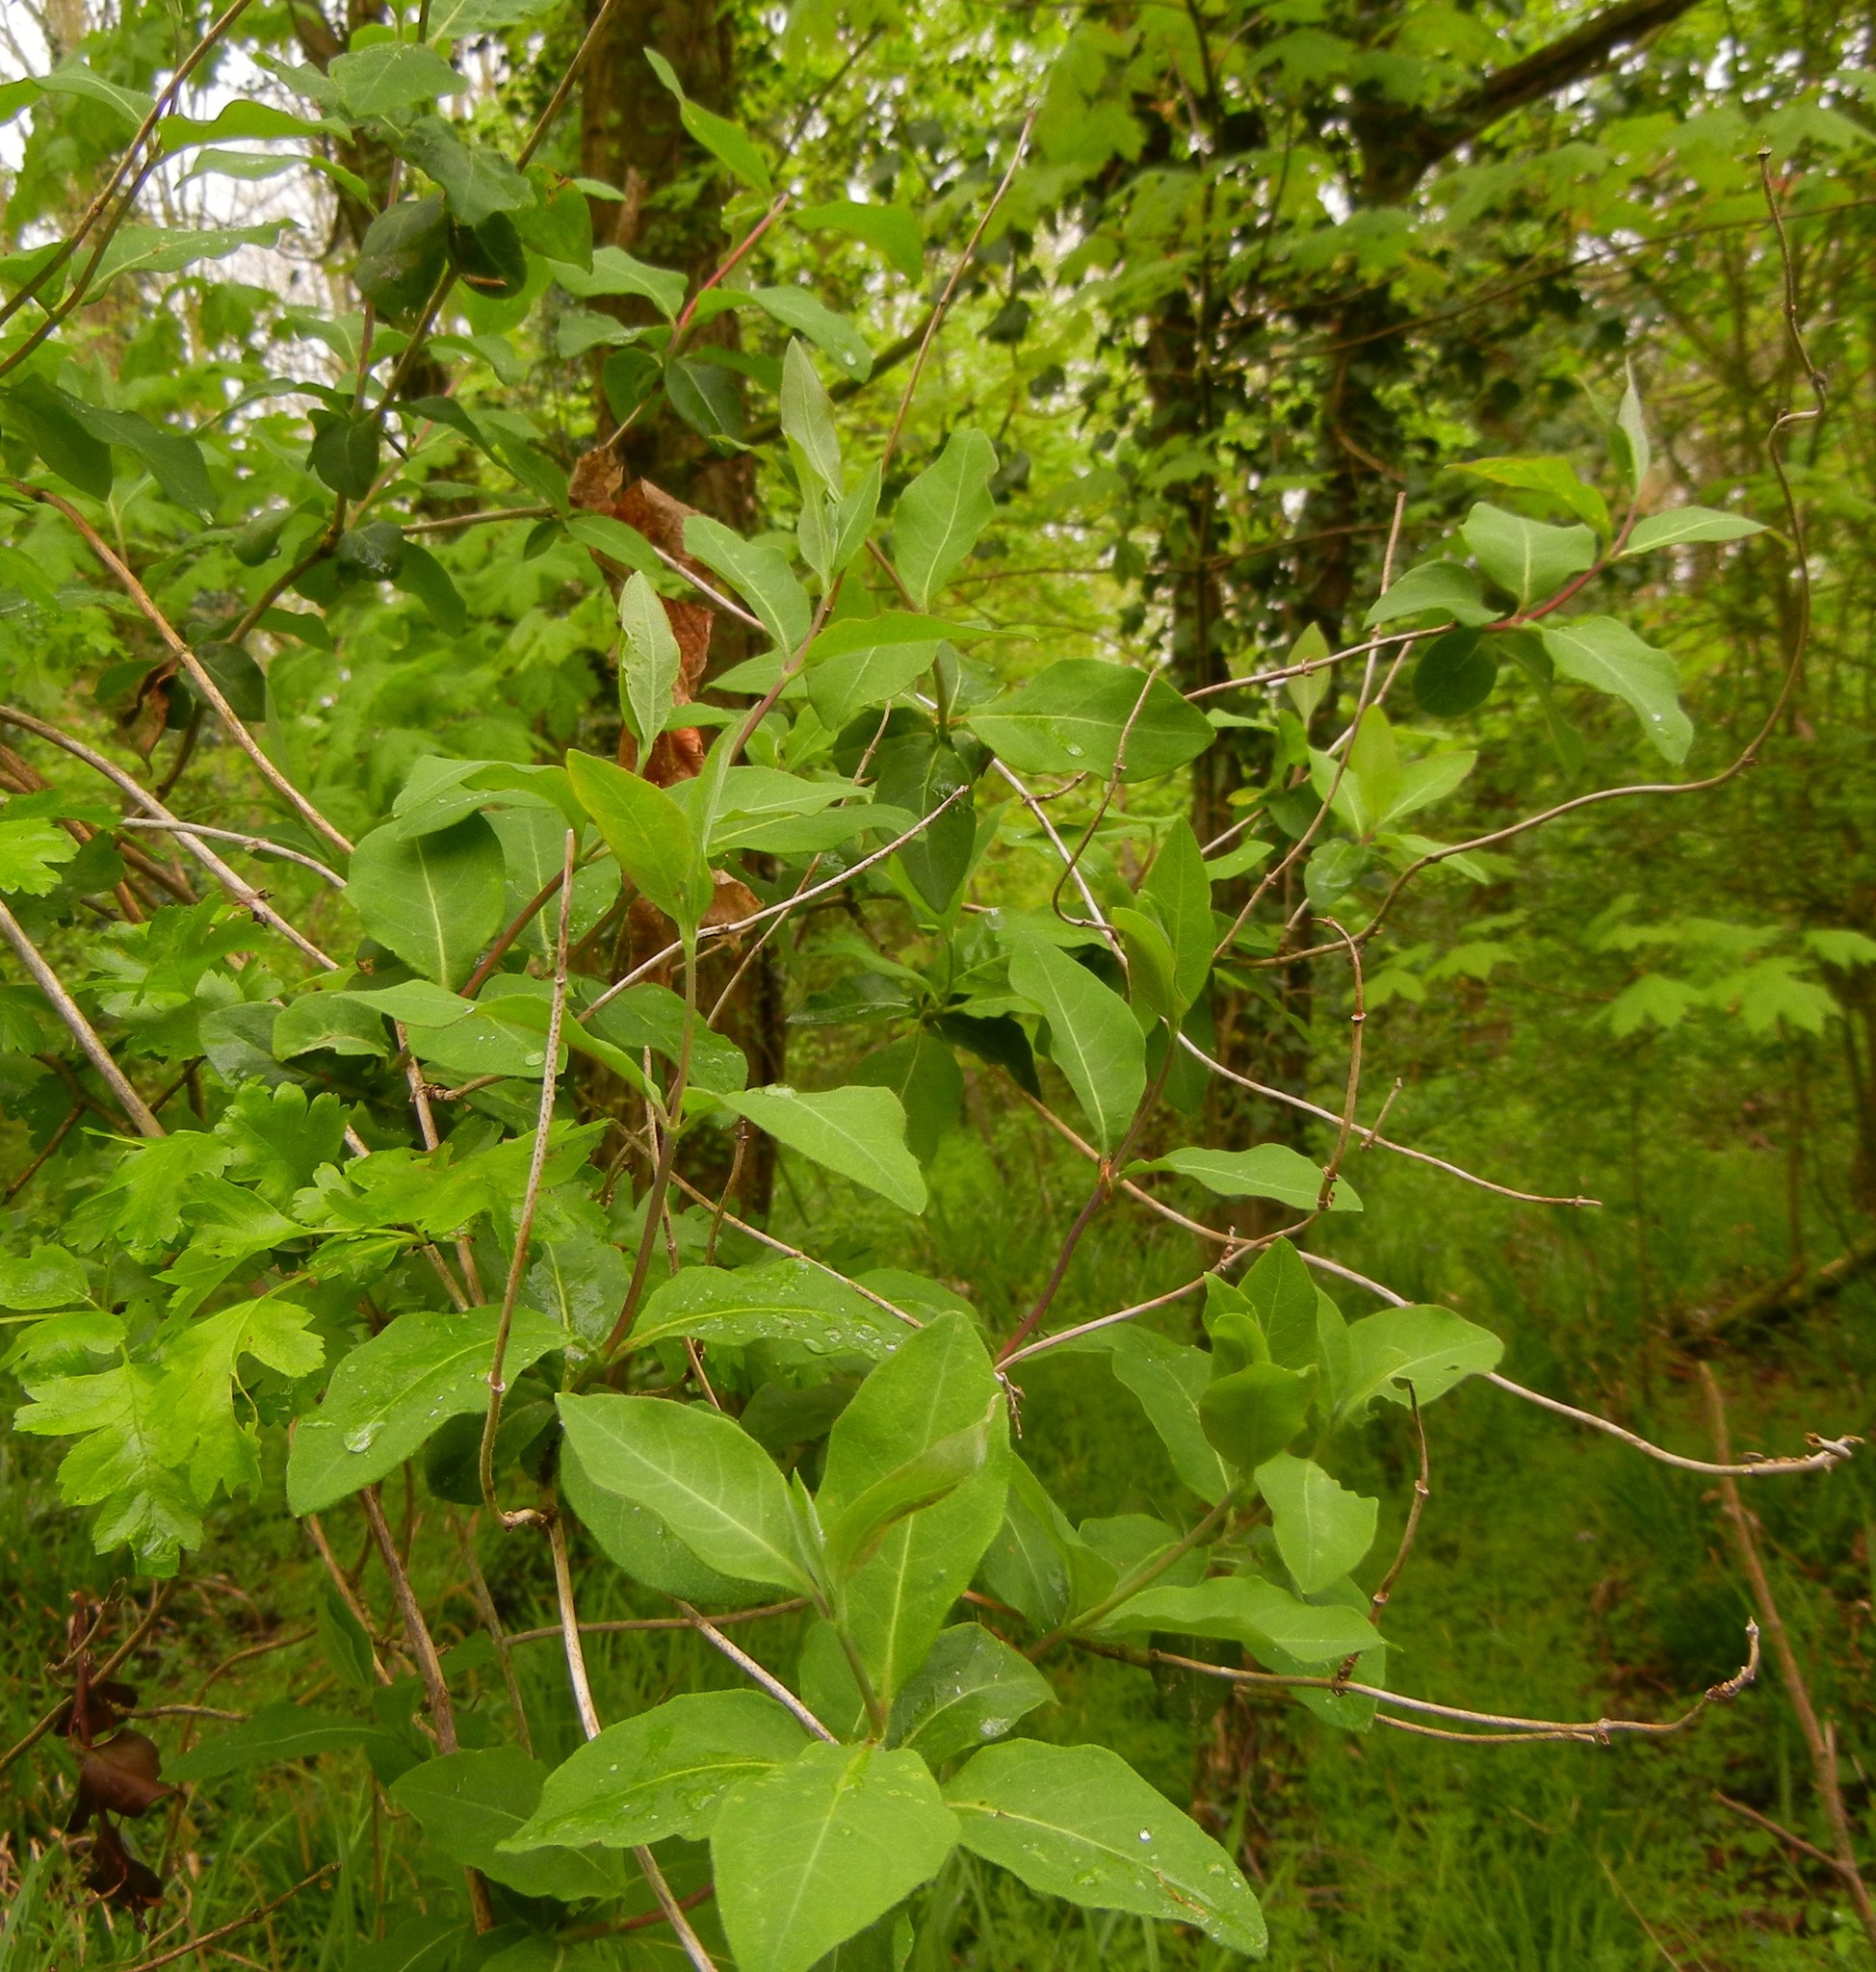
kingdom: Plantae
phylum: Tracheophyta
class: Magnoliopsida
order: Dipsacales
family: Caprifoliaceae
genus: Lonicera
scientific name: Lonicera periclymenum
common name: European honeysuckle
